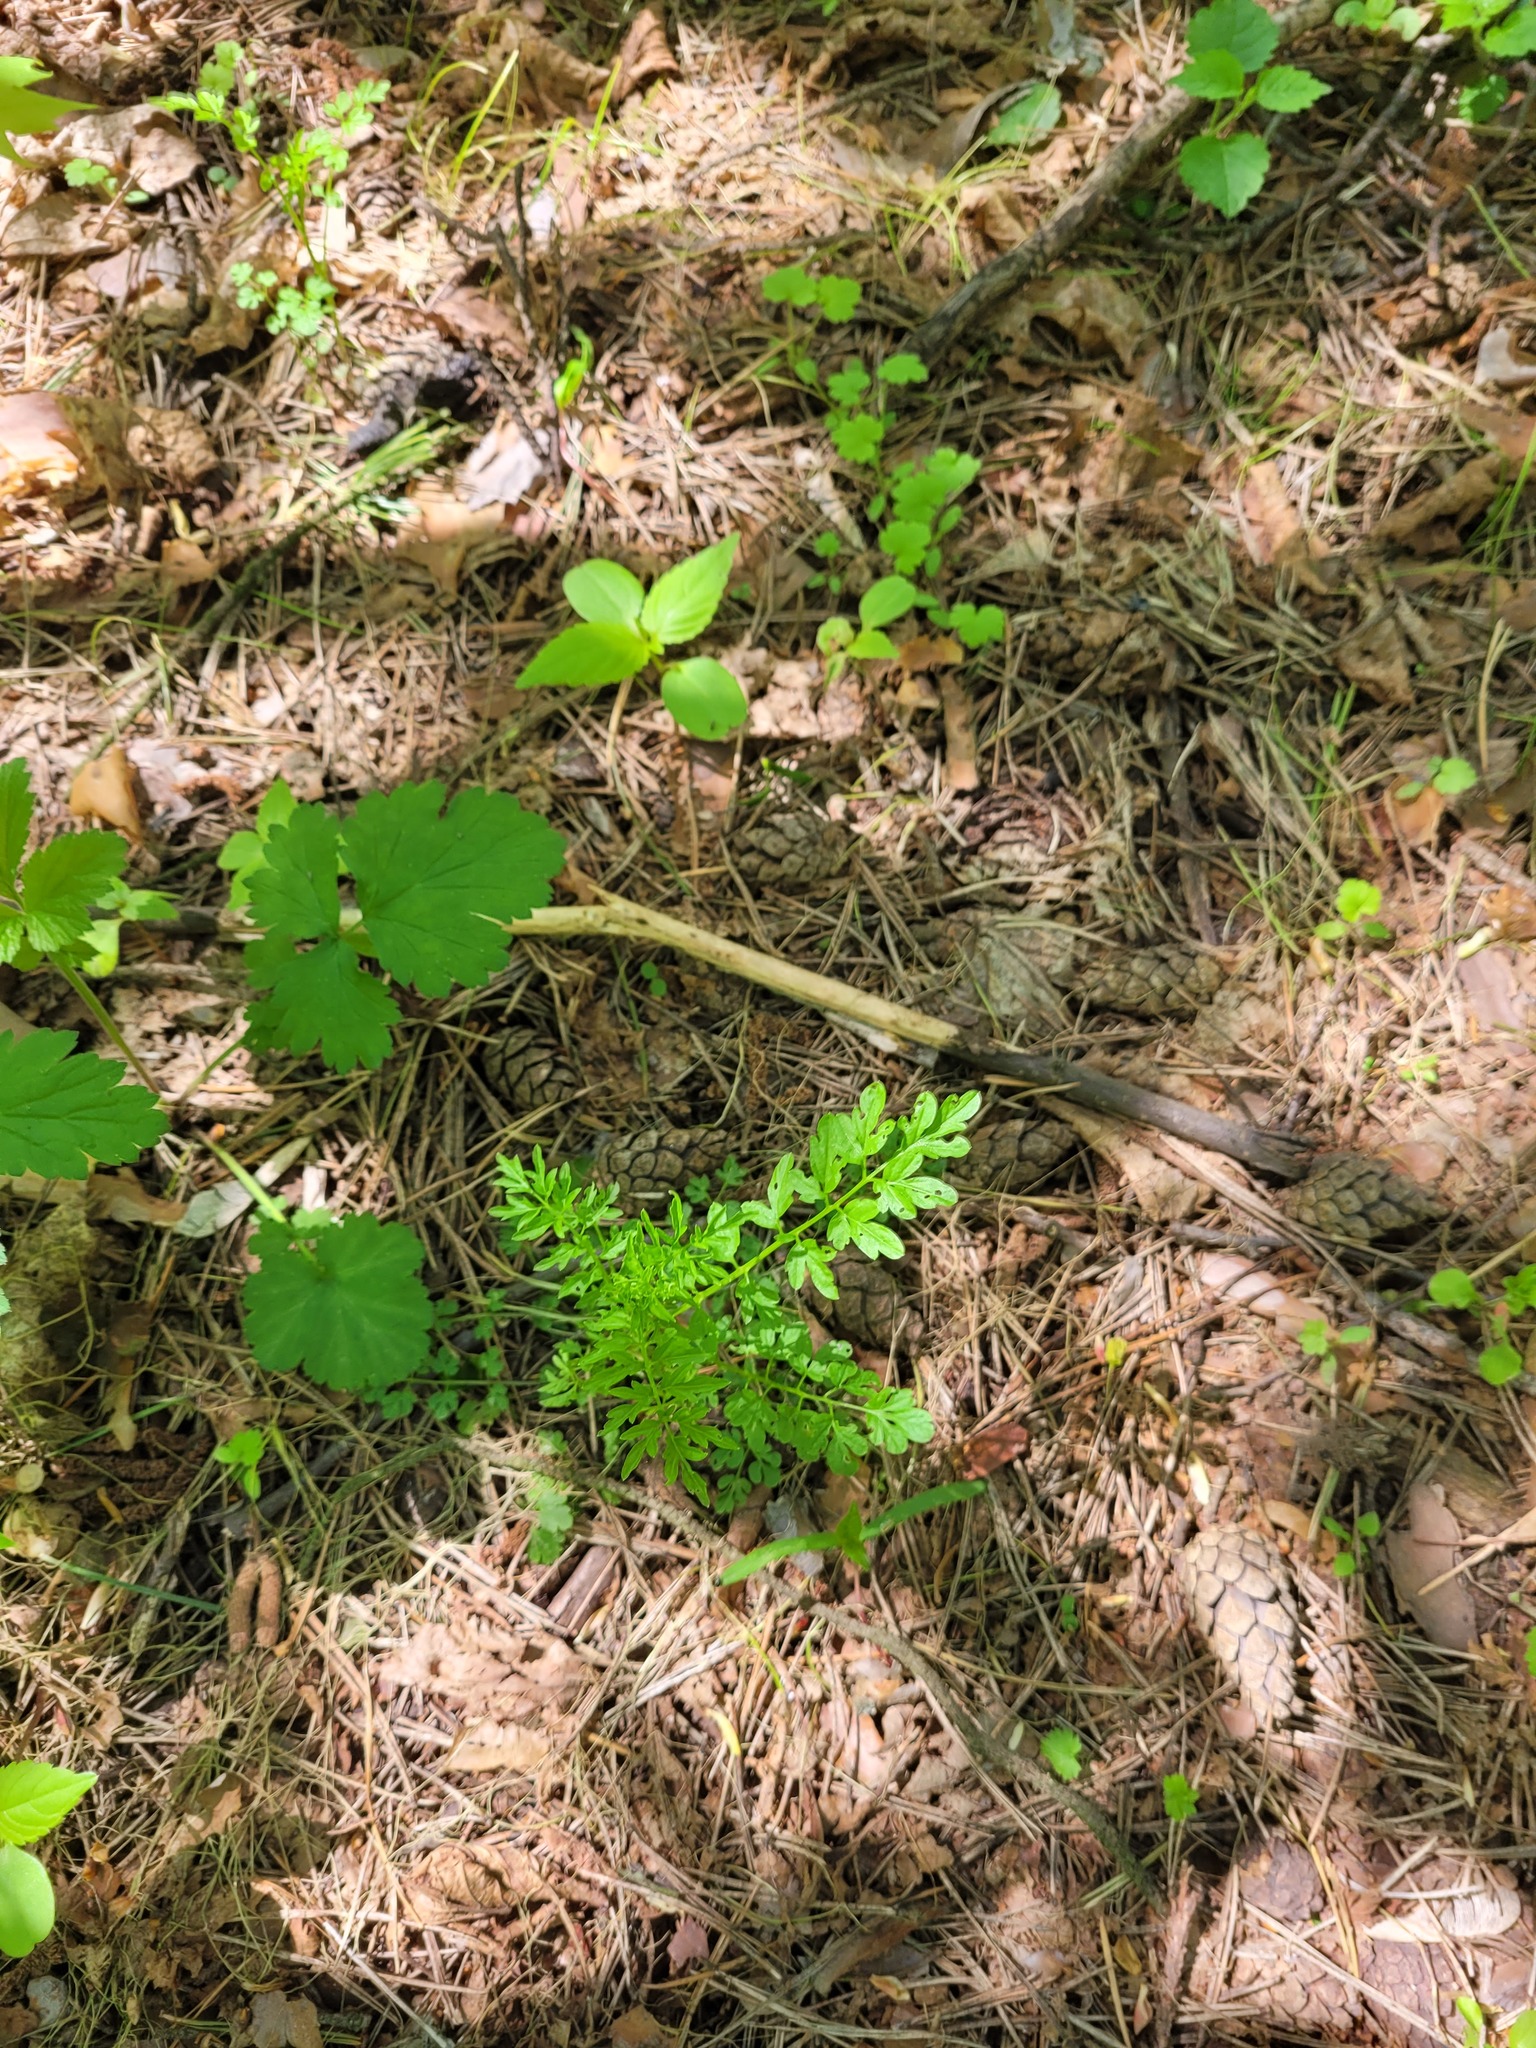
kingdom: Plantae
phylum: Tracheophyta
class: Magnoliopsida
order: Brassicales
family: Brassicaceae
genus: Cardamine
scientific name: Cardamine impatiens
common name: Narrow-leaved bitter-cress
